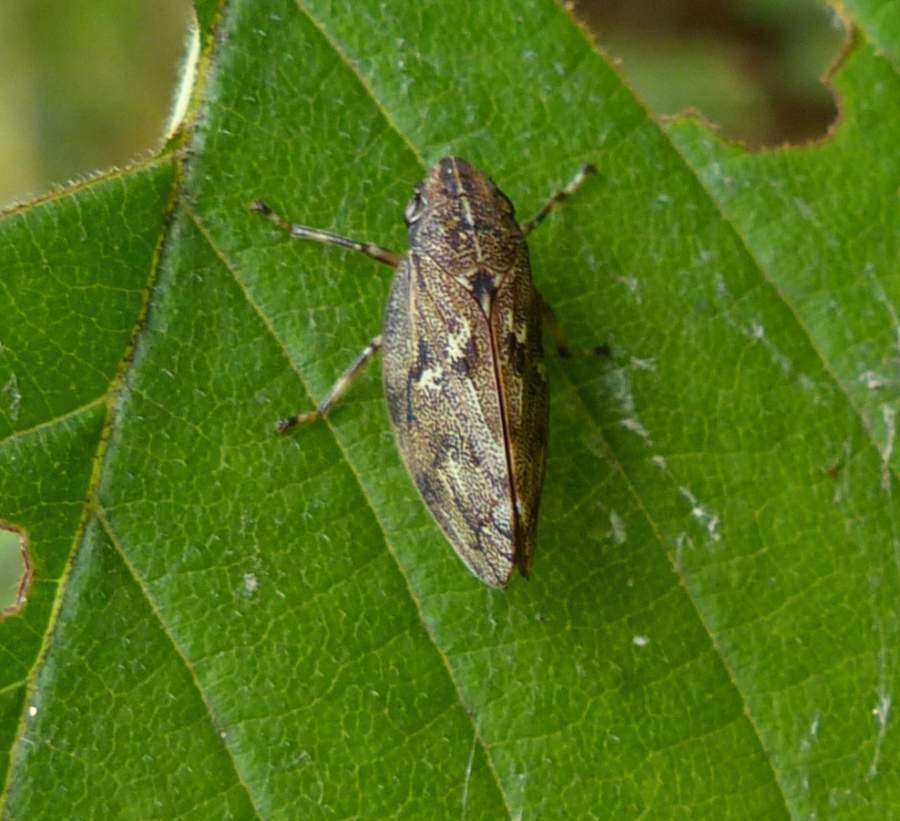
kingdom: Animalia
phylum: Arthropoda
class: Insecta
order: Hemiptera
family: Epipygidae
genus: Epipyga
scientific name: Epipyga cribrata
